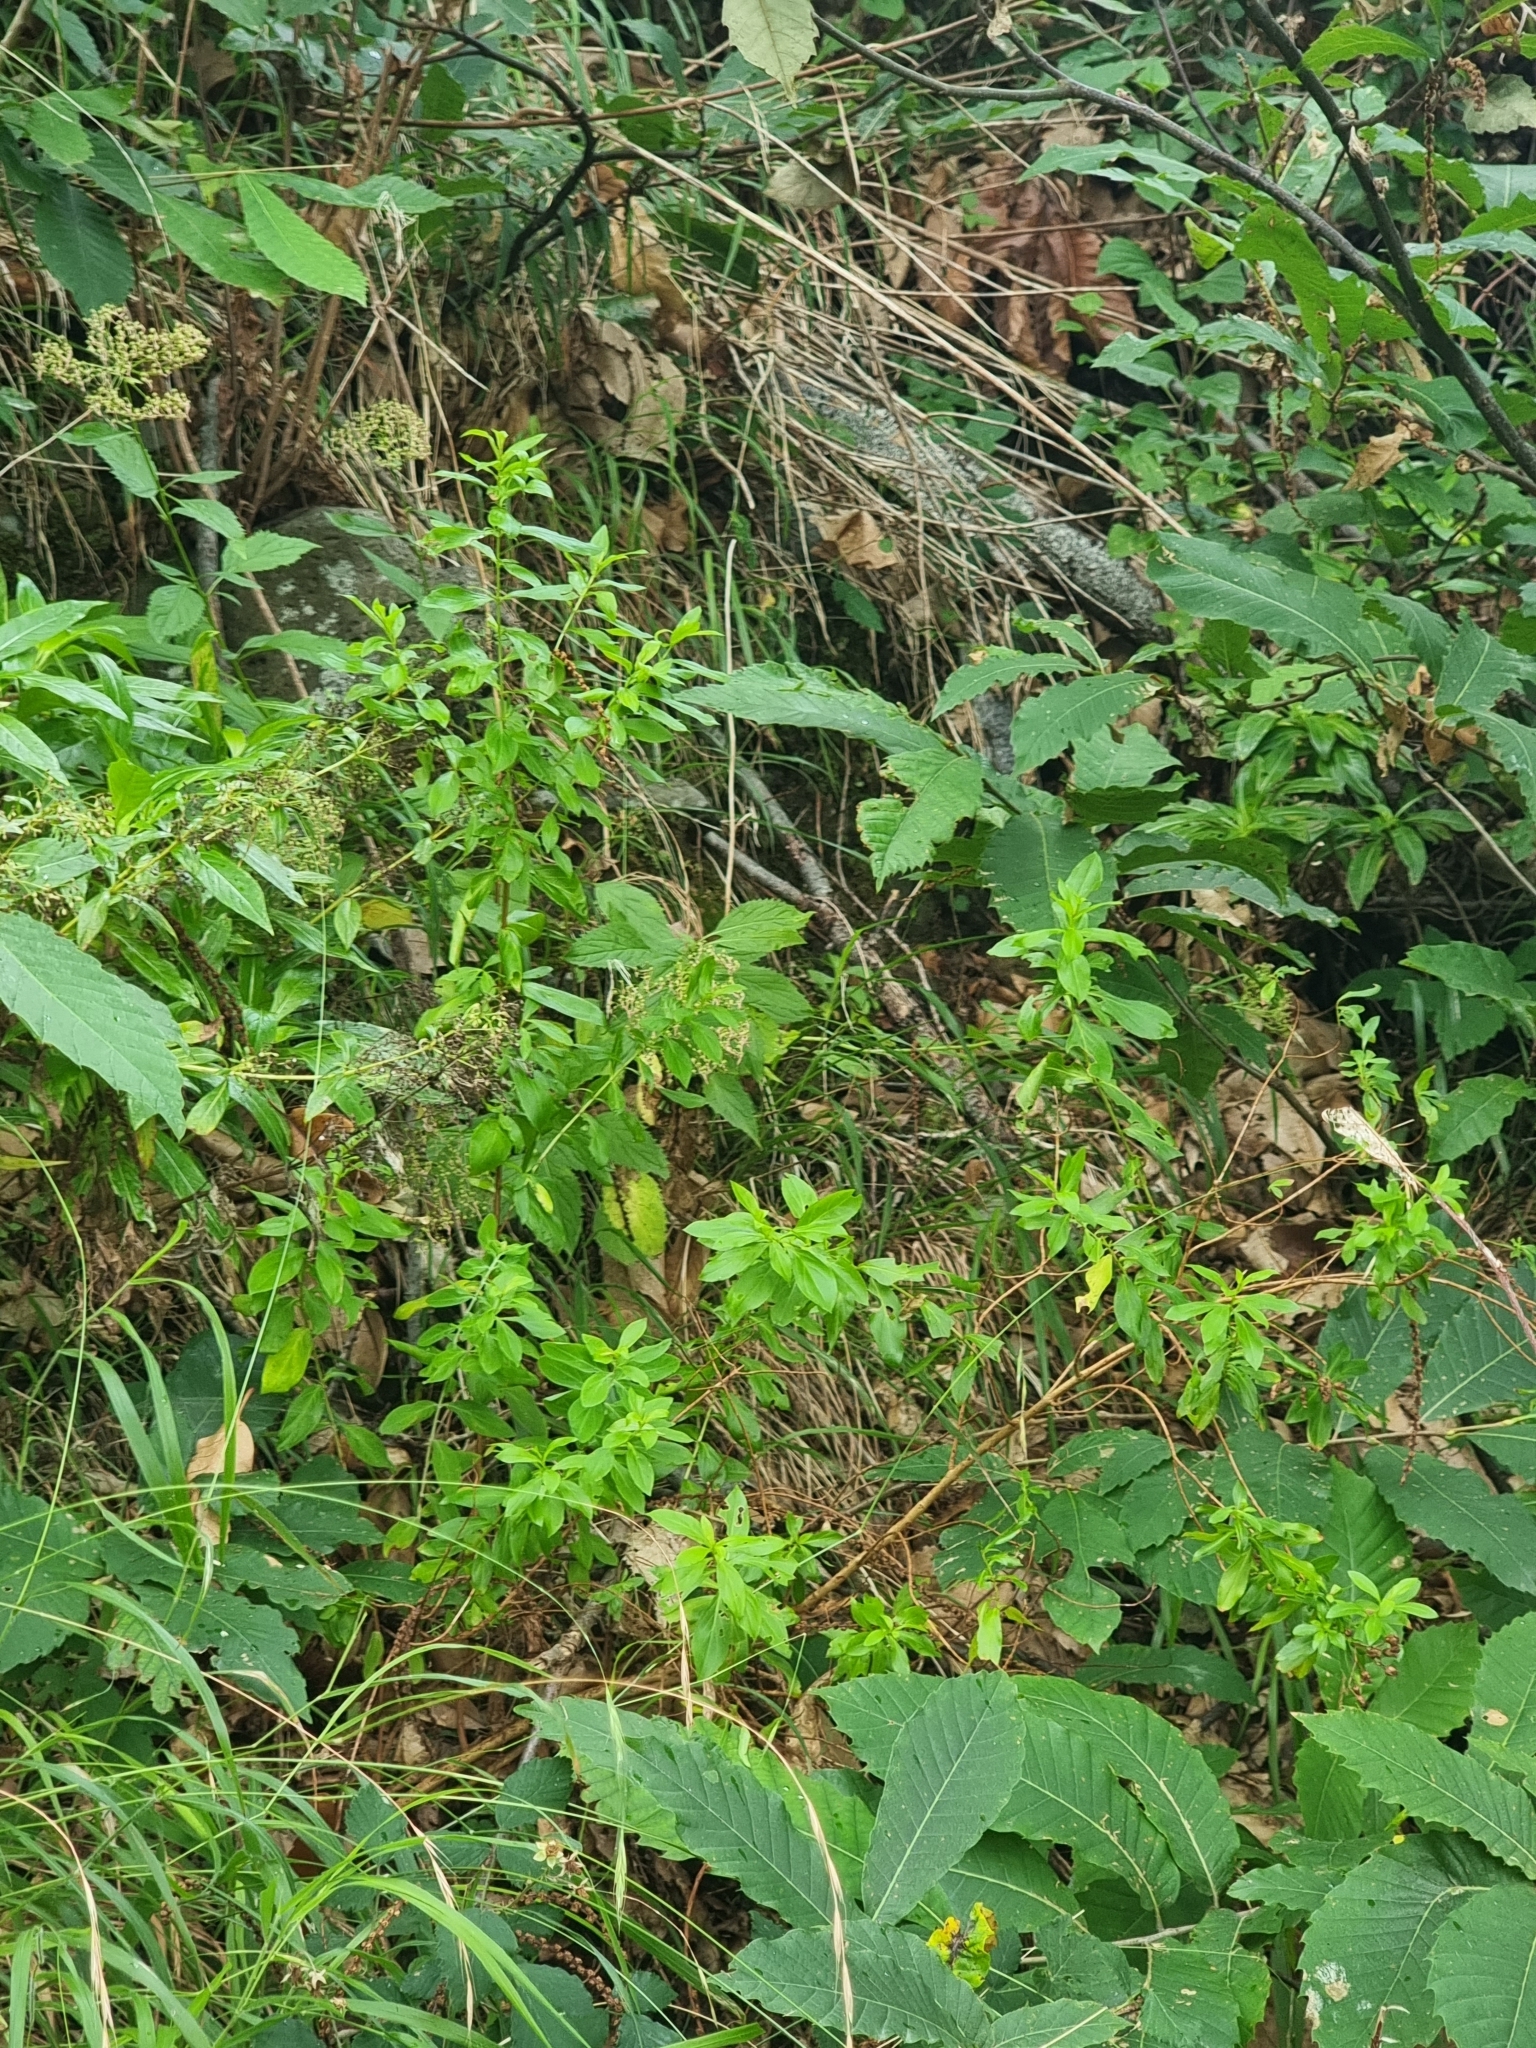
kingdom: Plantae
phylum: Tracheophyta
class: Magnoliopsida
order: Malpighiales
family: Hypericaceae
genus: Hypericum
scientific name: Hypericum glandulosum
